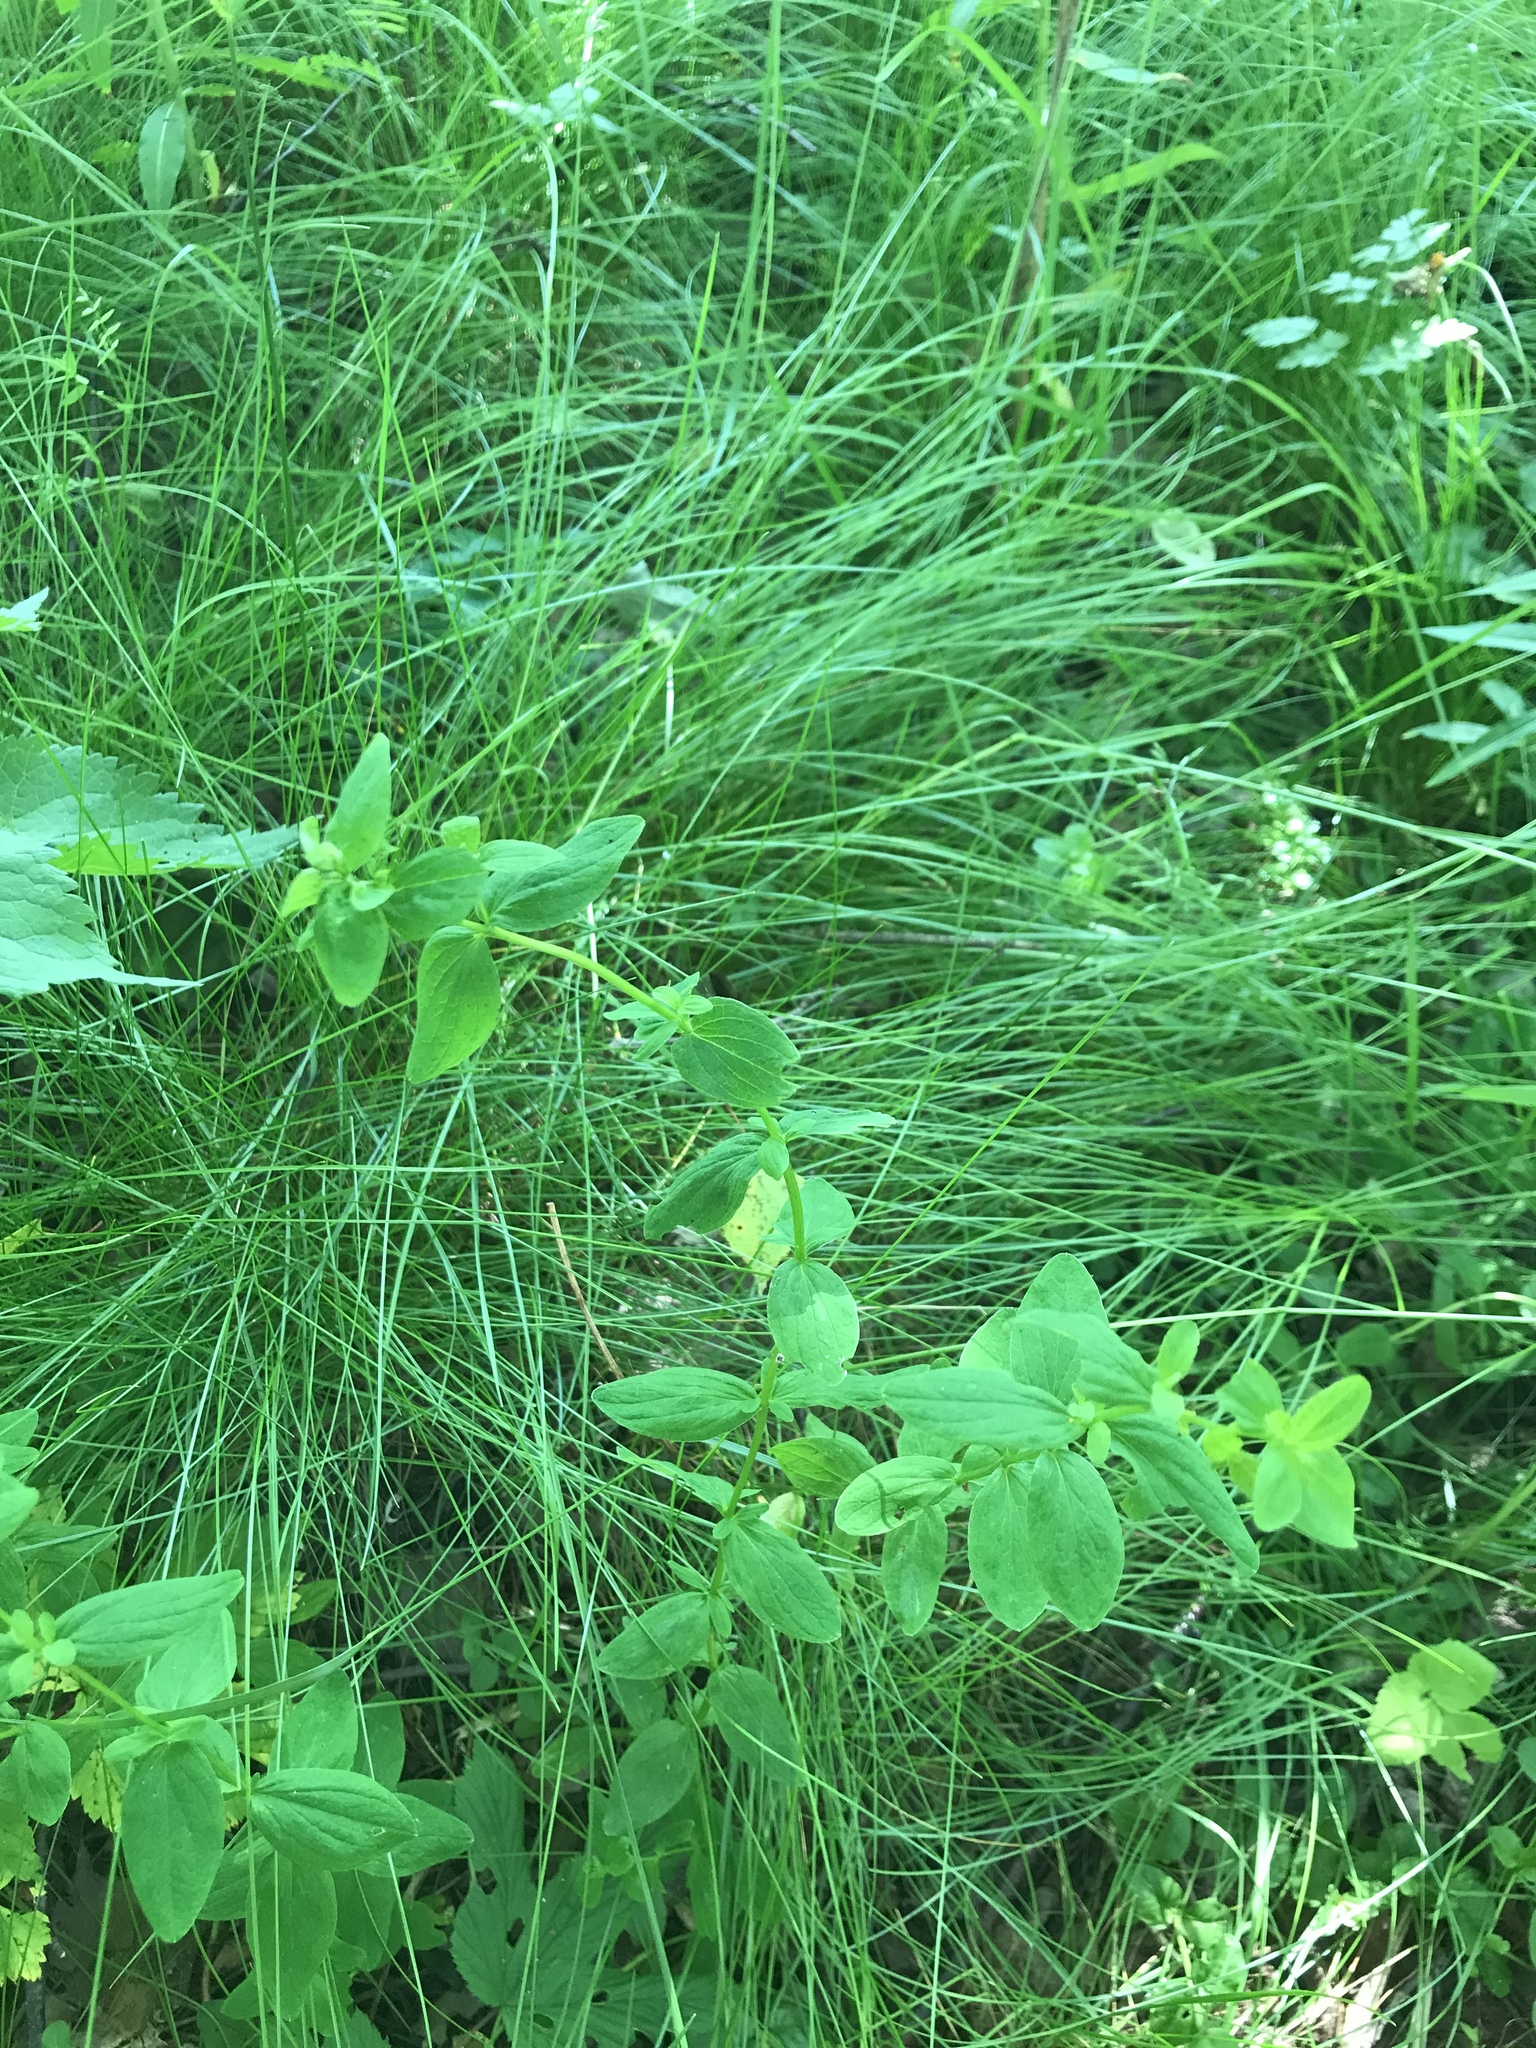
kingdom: Plantae
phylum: Tracheophyta
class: Magnoliopsida
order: Malpighiales
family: Hypericaceae
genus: Hypericum
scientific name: Hypericum maculatum
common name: Imperforate st. john's-wort
